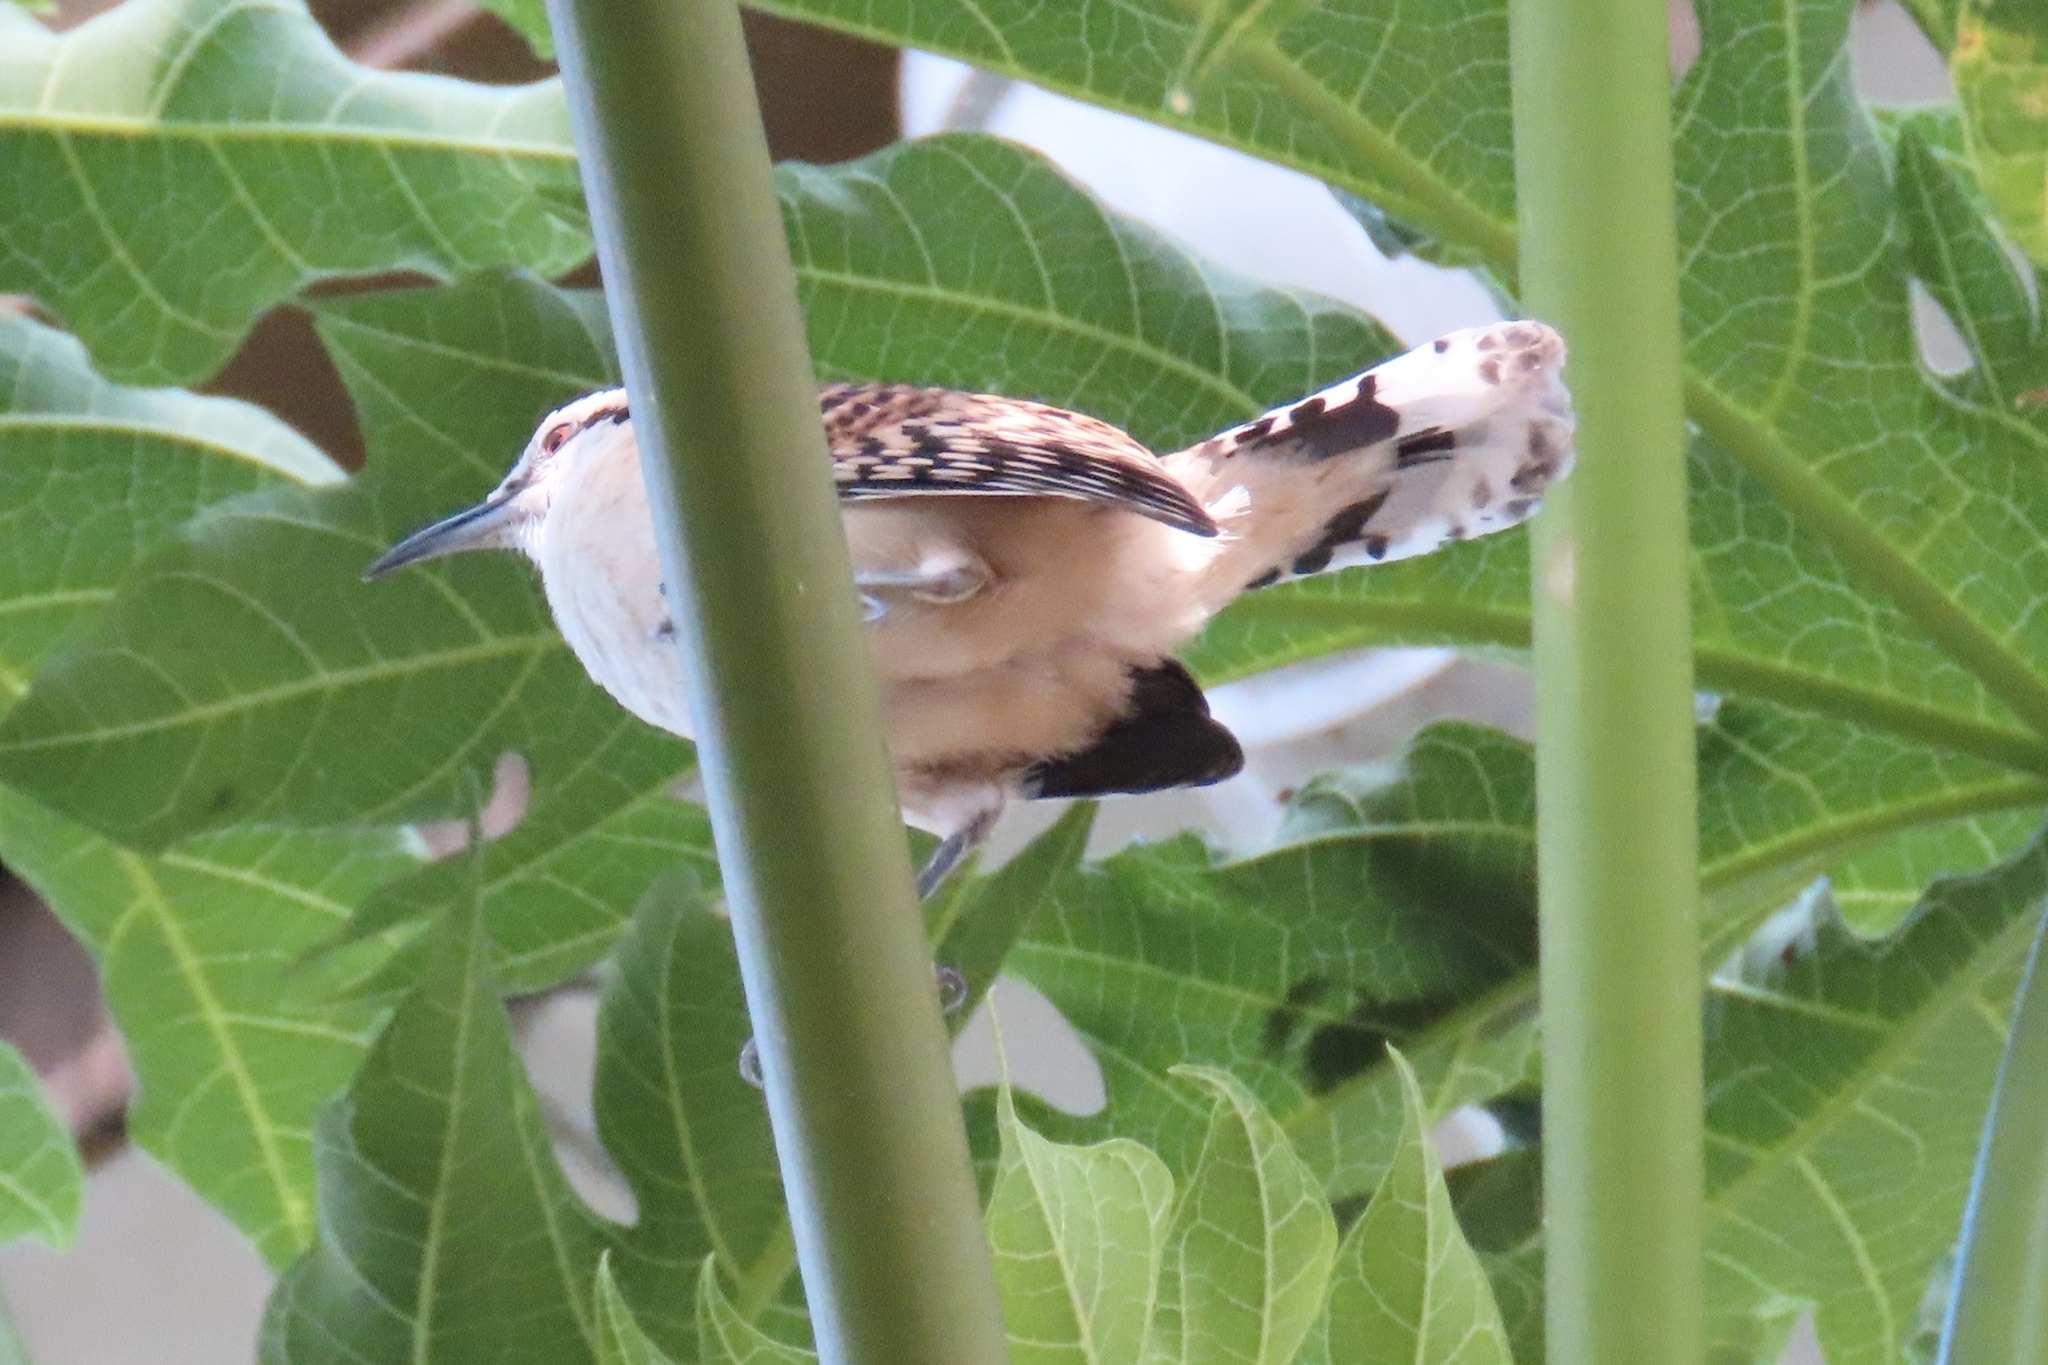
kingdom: Animalia
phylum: Chordata
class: Aves
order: Passeriformes
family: Troglodytidae
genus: Campylorhynchus
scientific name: Campylorhynchus rufinucha
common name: Rufous-naped wren
